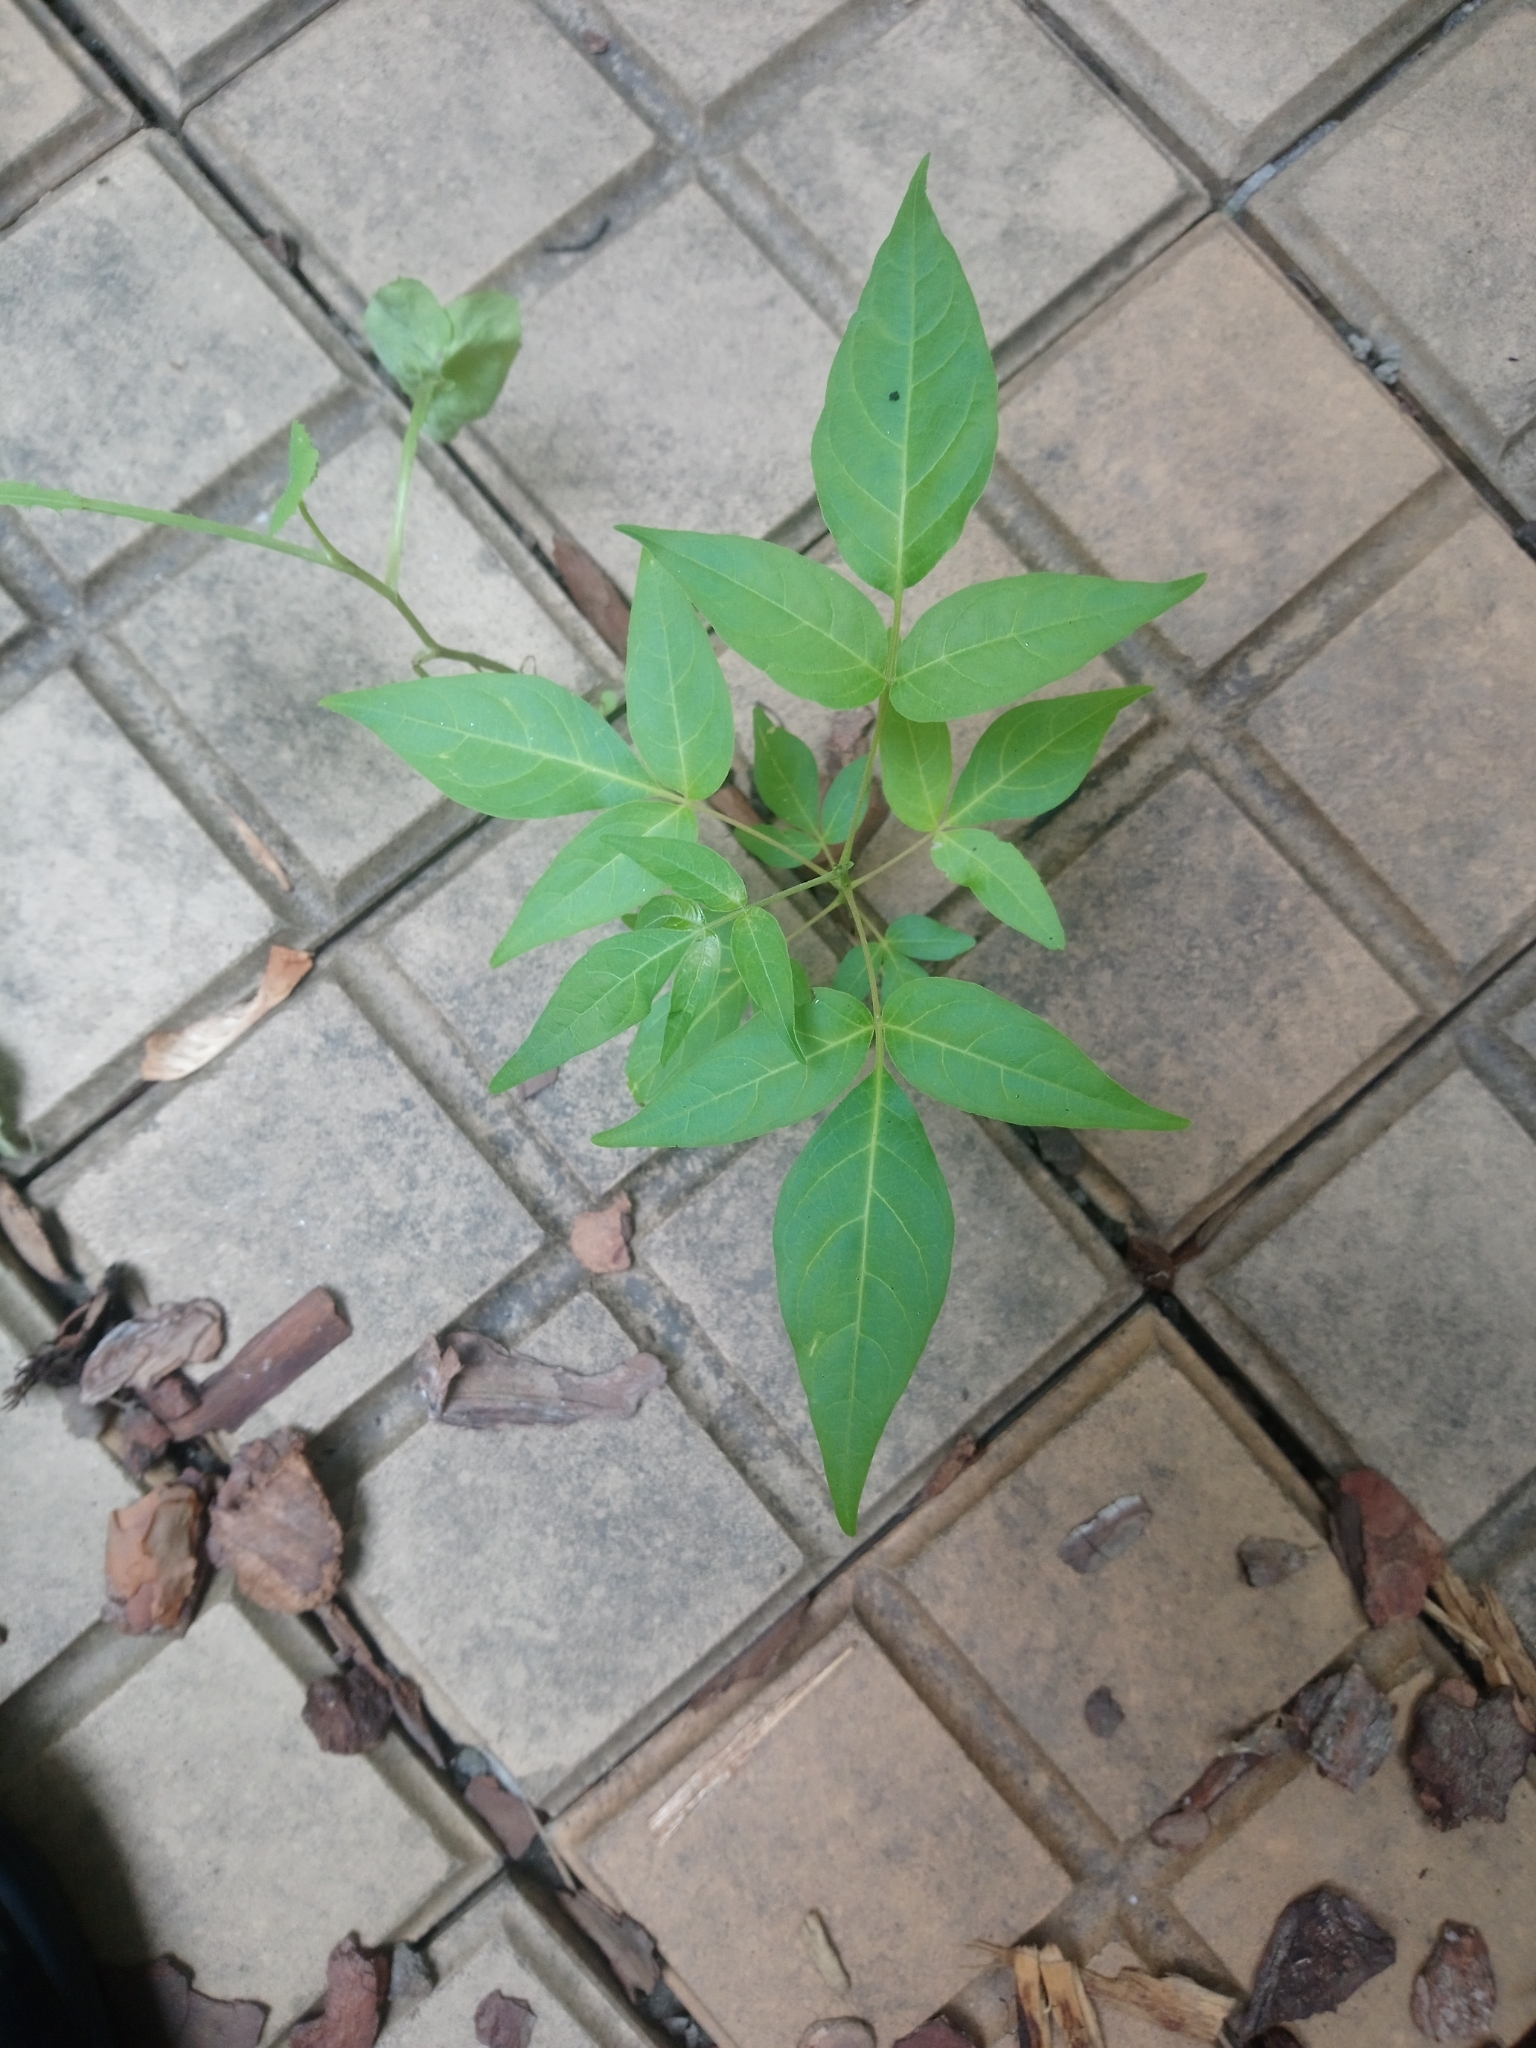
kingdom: Plantae
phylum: Tracheophyta
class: Magnoliopsida
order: Sapindales
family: Simaroubaceae
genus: Ailanthus
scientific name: Ailanthus altissima
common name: Tree-of-heaven
